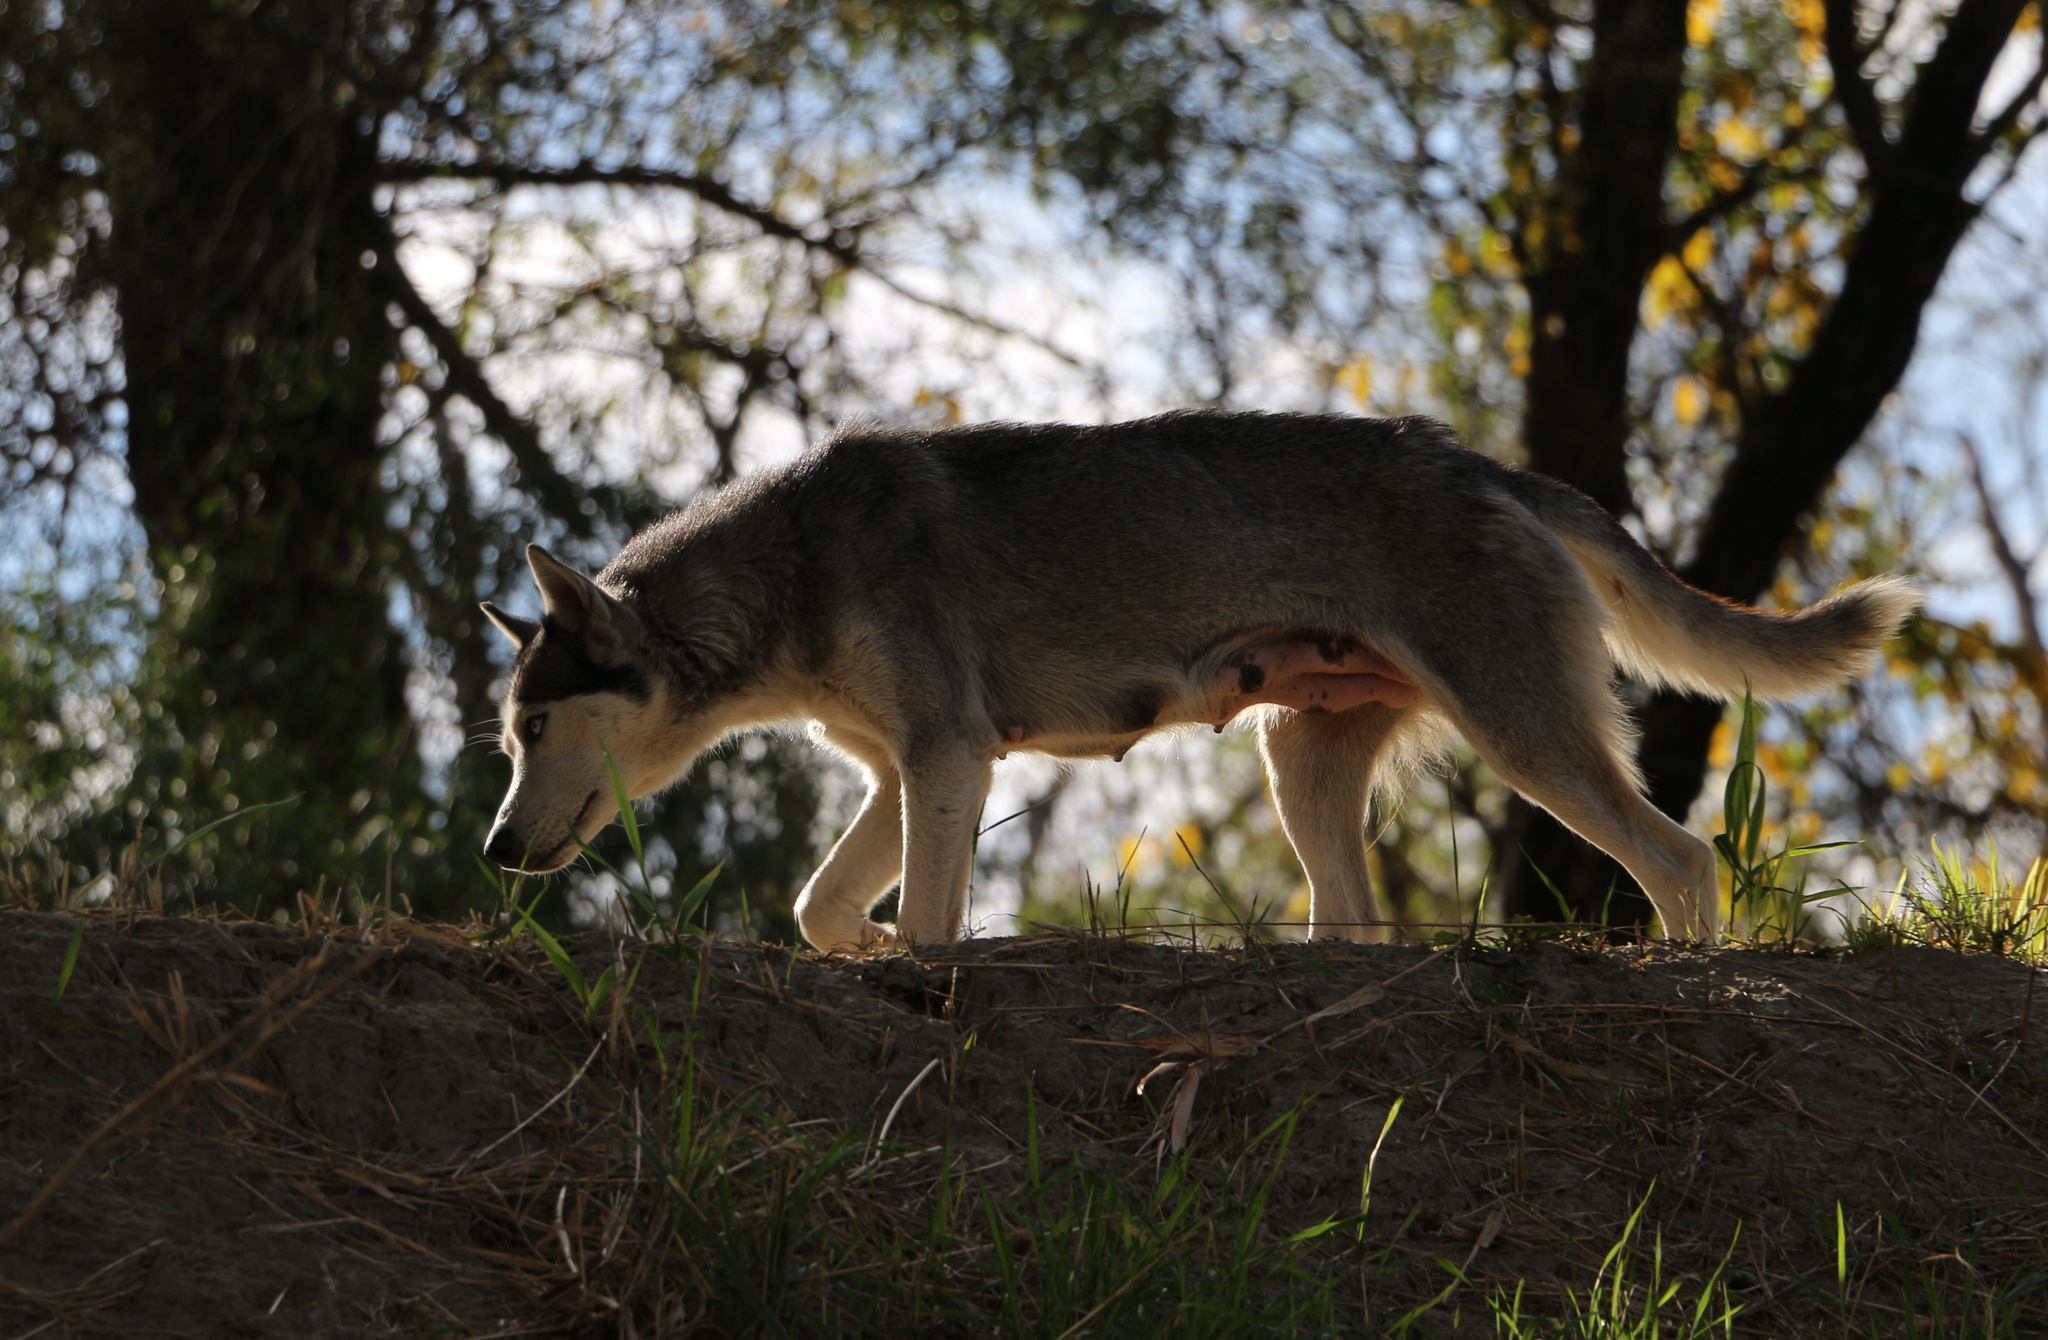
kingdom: Animalia
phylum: Chordata
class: Mammalia
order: Carnivora
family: Canidae
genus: Canis
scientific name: Canis lupus
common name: Gray wolf
